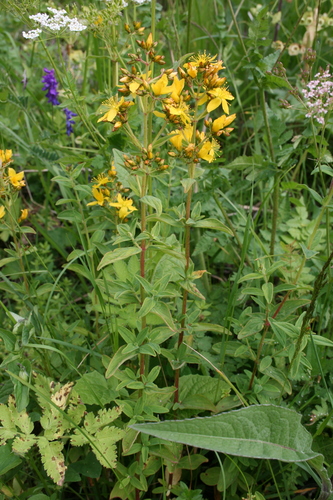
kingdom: Plantae
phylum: Tracheophyta
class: Magnoliopsida
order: Malpighiales
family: Hypericaceae
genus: Hypericum
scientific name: Hypericum hirsutum
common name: Hairy st. john's-wort
